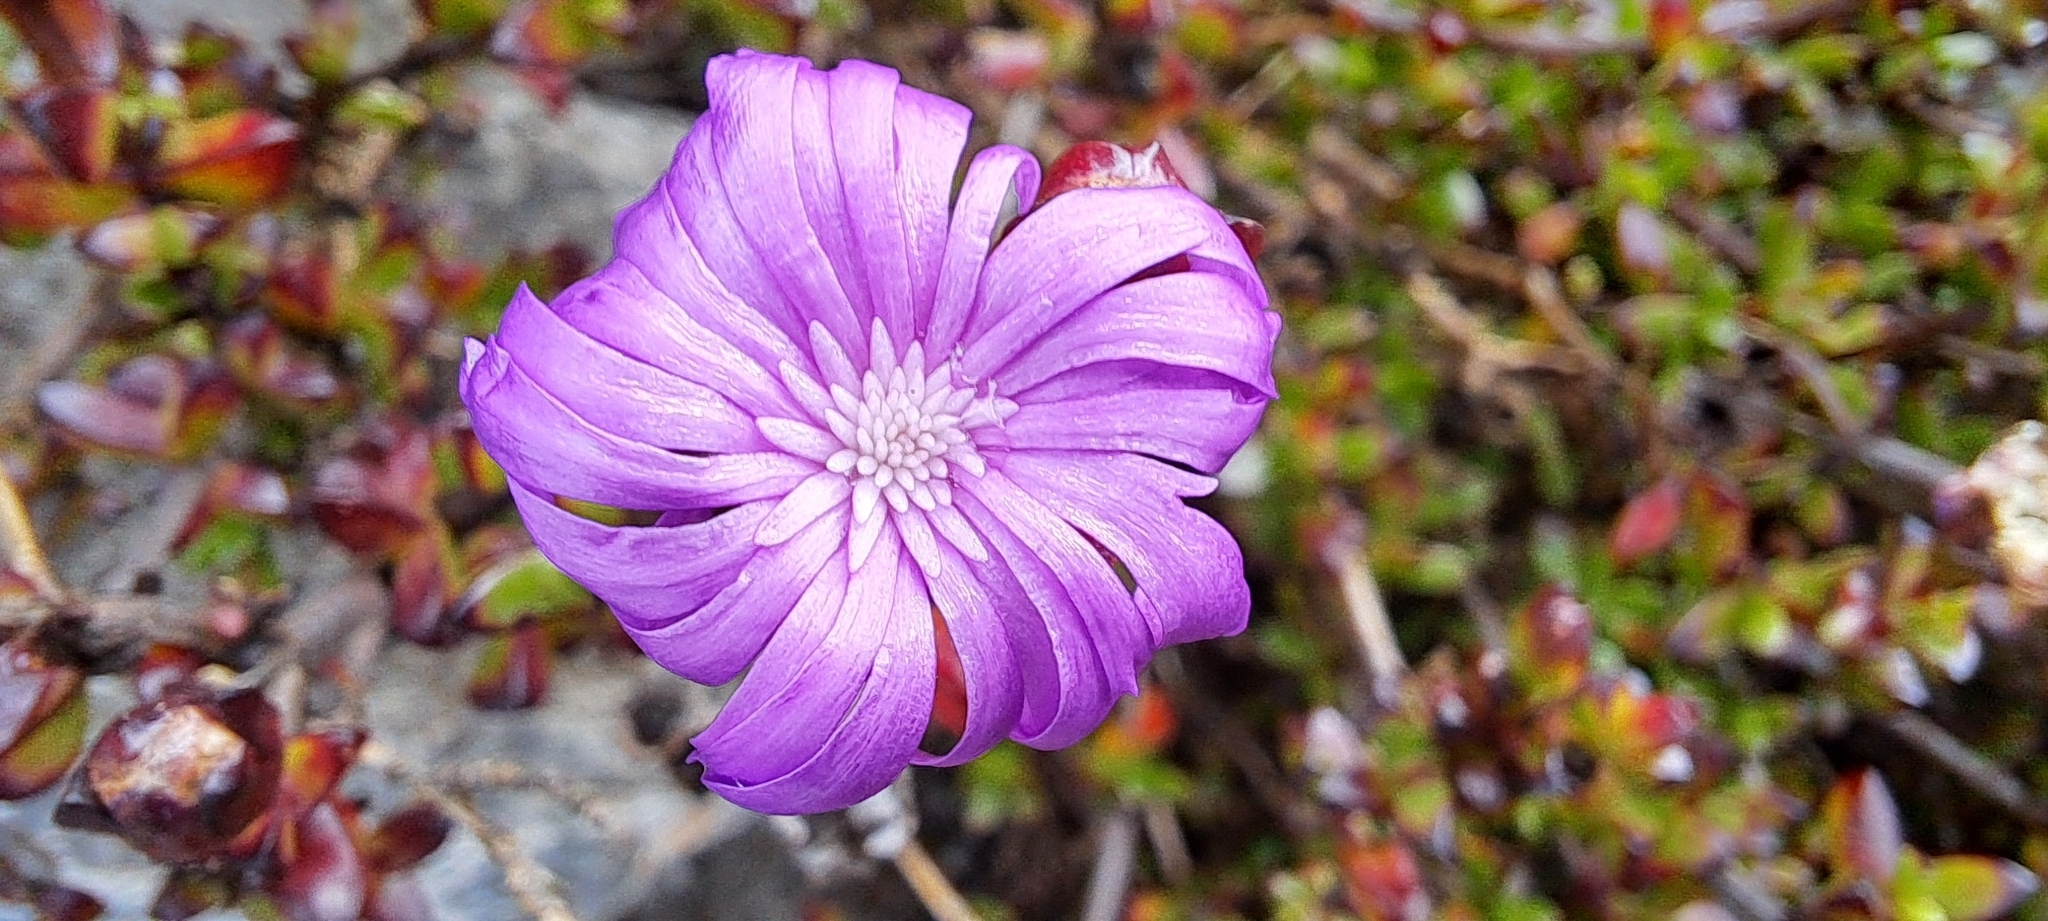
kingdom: Plantae
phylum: Tracheophyta
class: Magnoliopsida
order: Caryophyllales
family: Aizoaceae
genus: Erepsia
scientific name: Erepsia inclaudens
